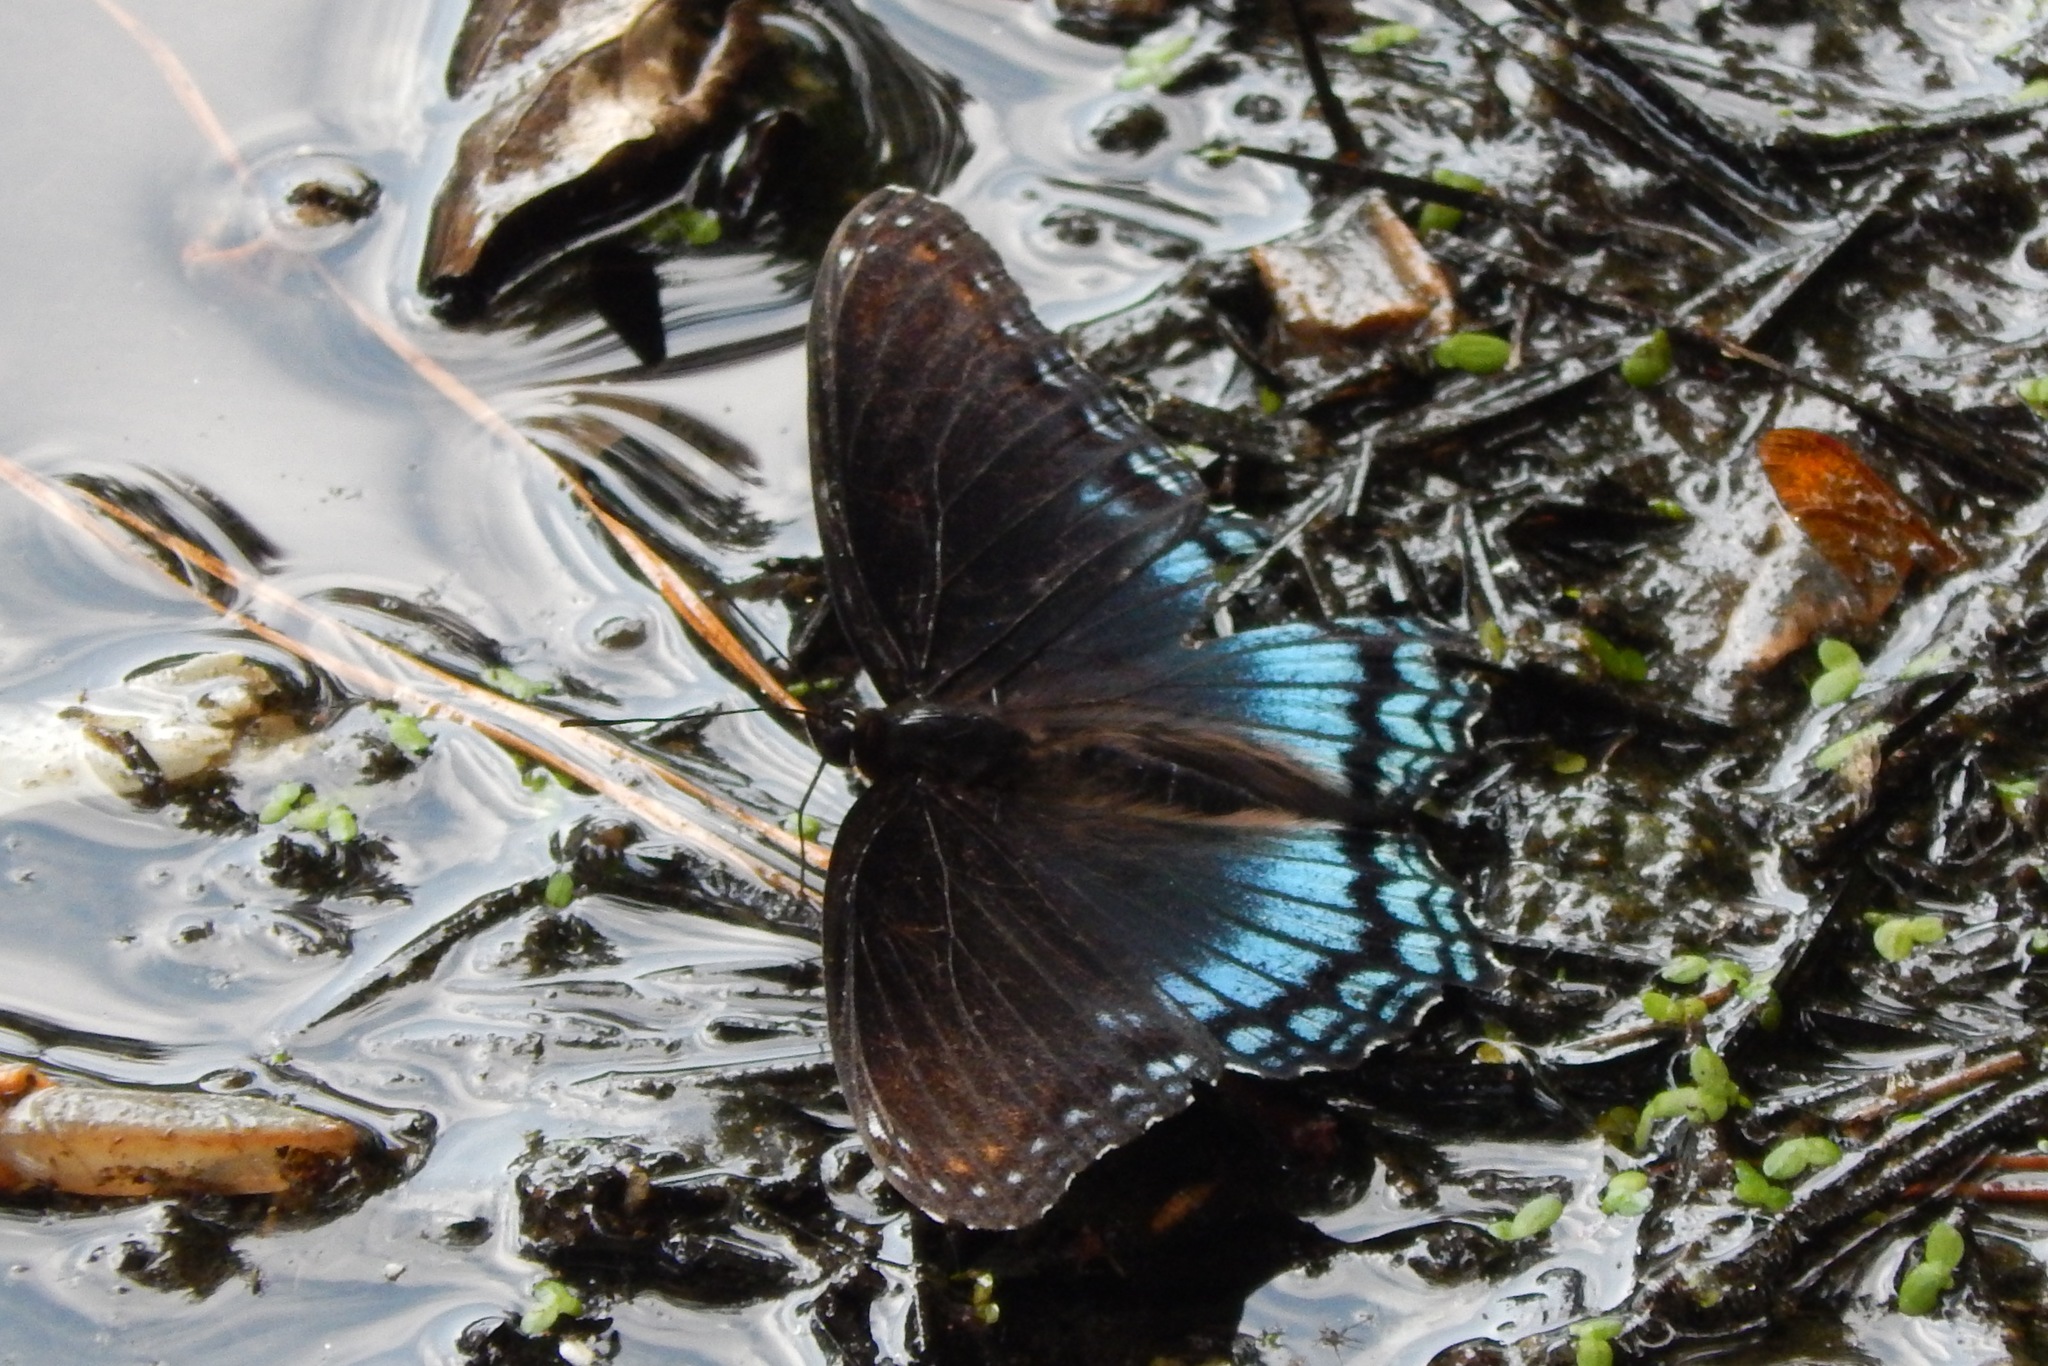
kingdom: Animalia
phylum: Arthropoda
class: Insecta
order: Lepidoptera
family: Nymphalidae
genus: Limenitis
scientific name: Limenitis arthemis
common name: Red-spotted admiral
